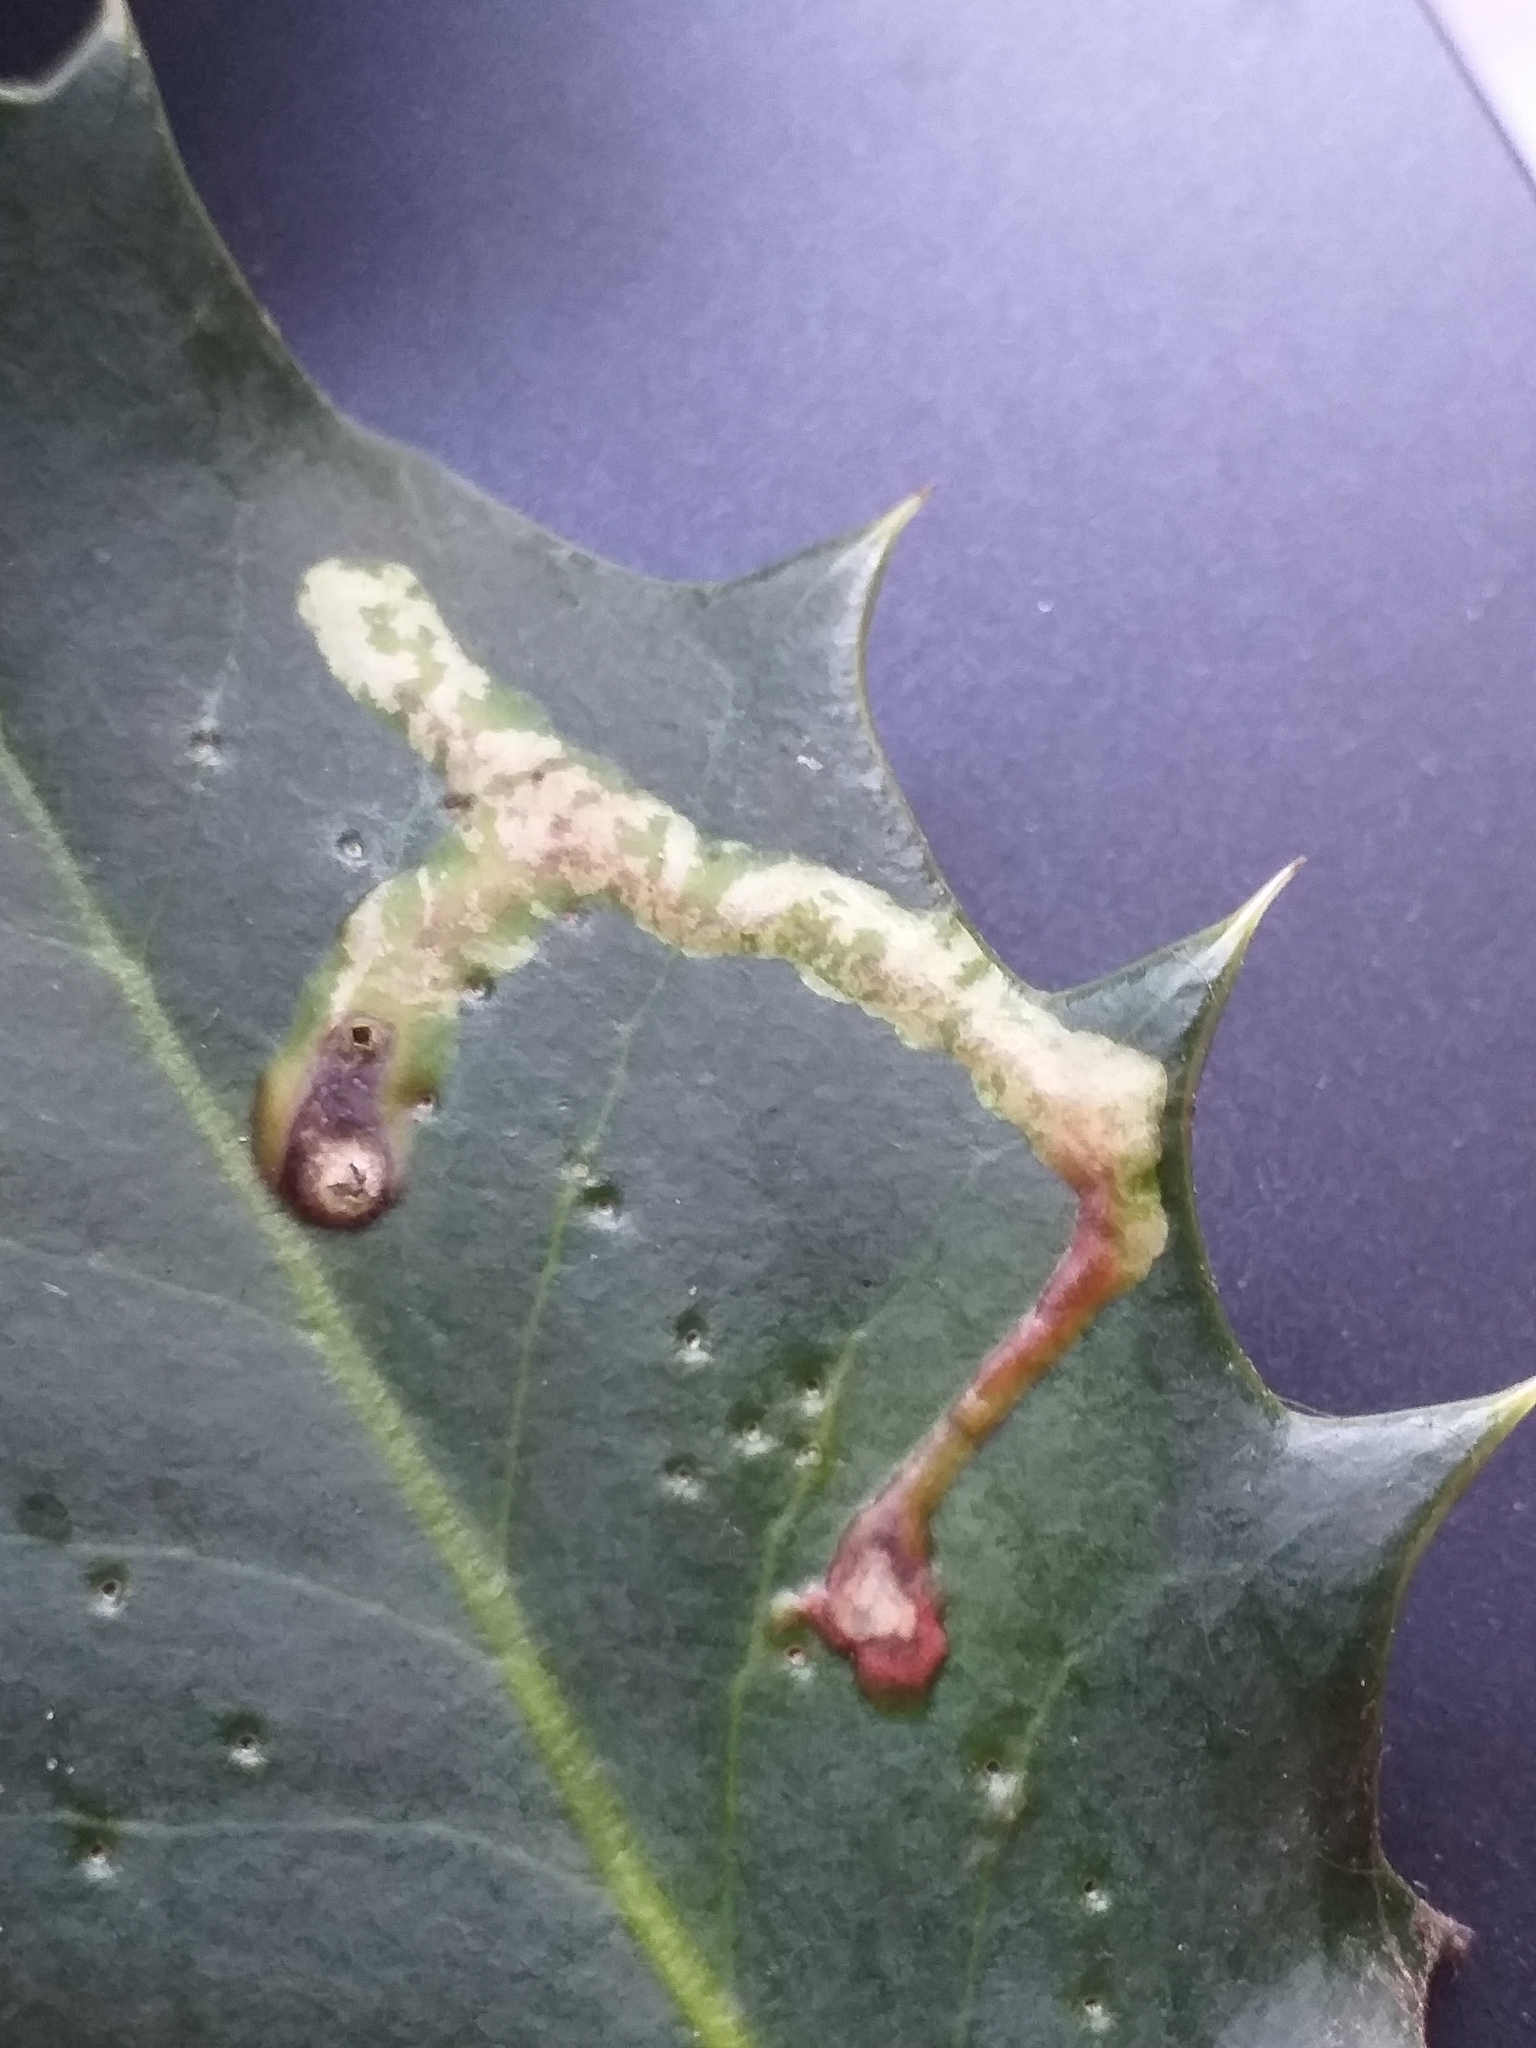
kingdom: Animalia
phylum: Arthropoda
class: Insecta
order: Diptera
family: Agromyzidae
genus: Phytomyza
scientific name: Phytomyza ilicis
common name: Holly leafminer
